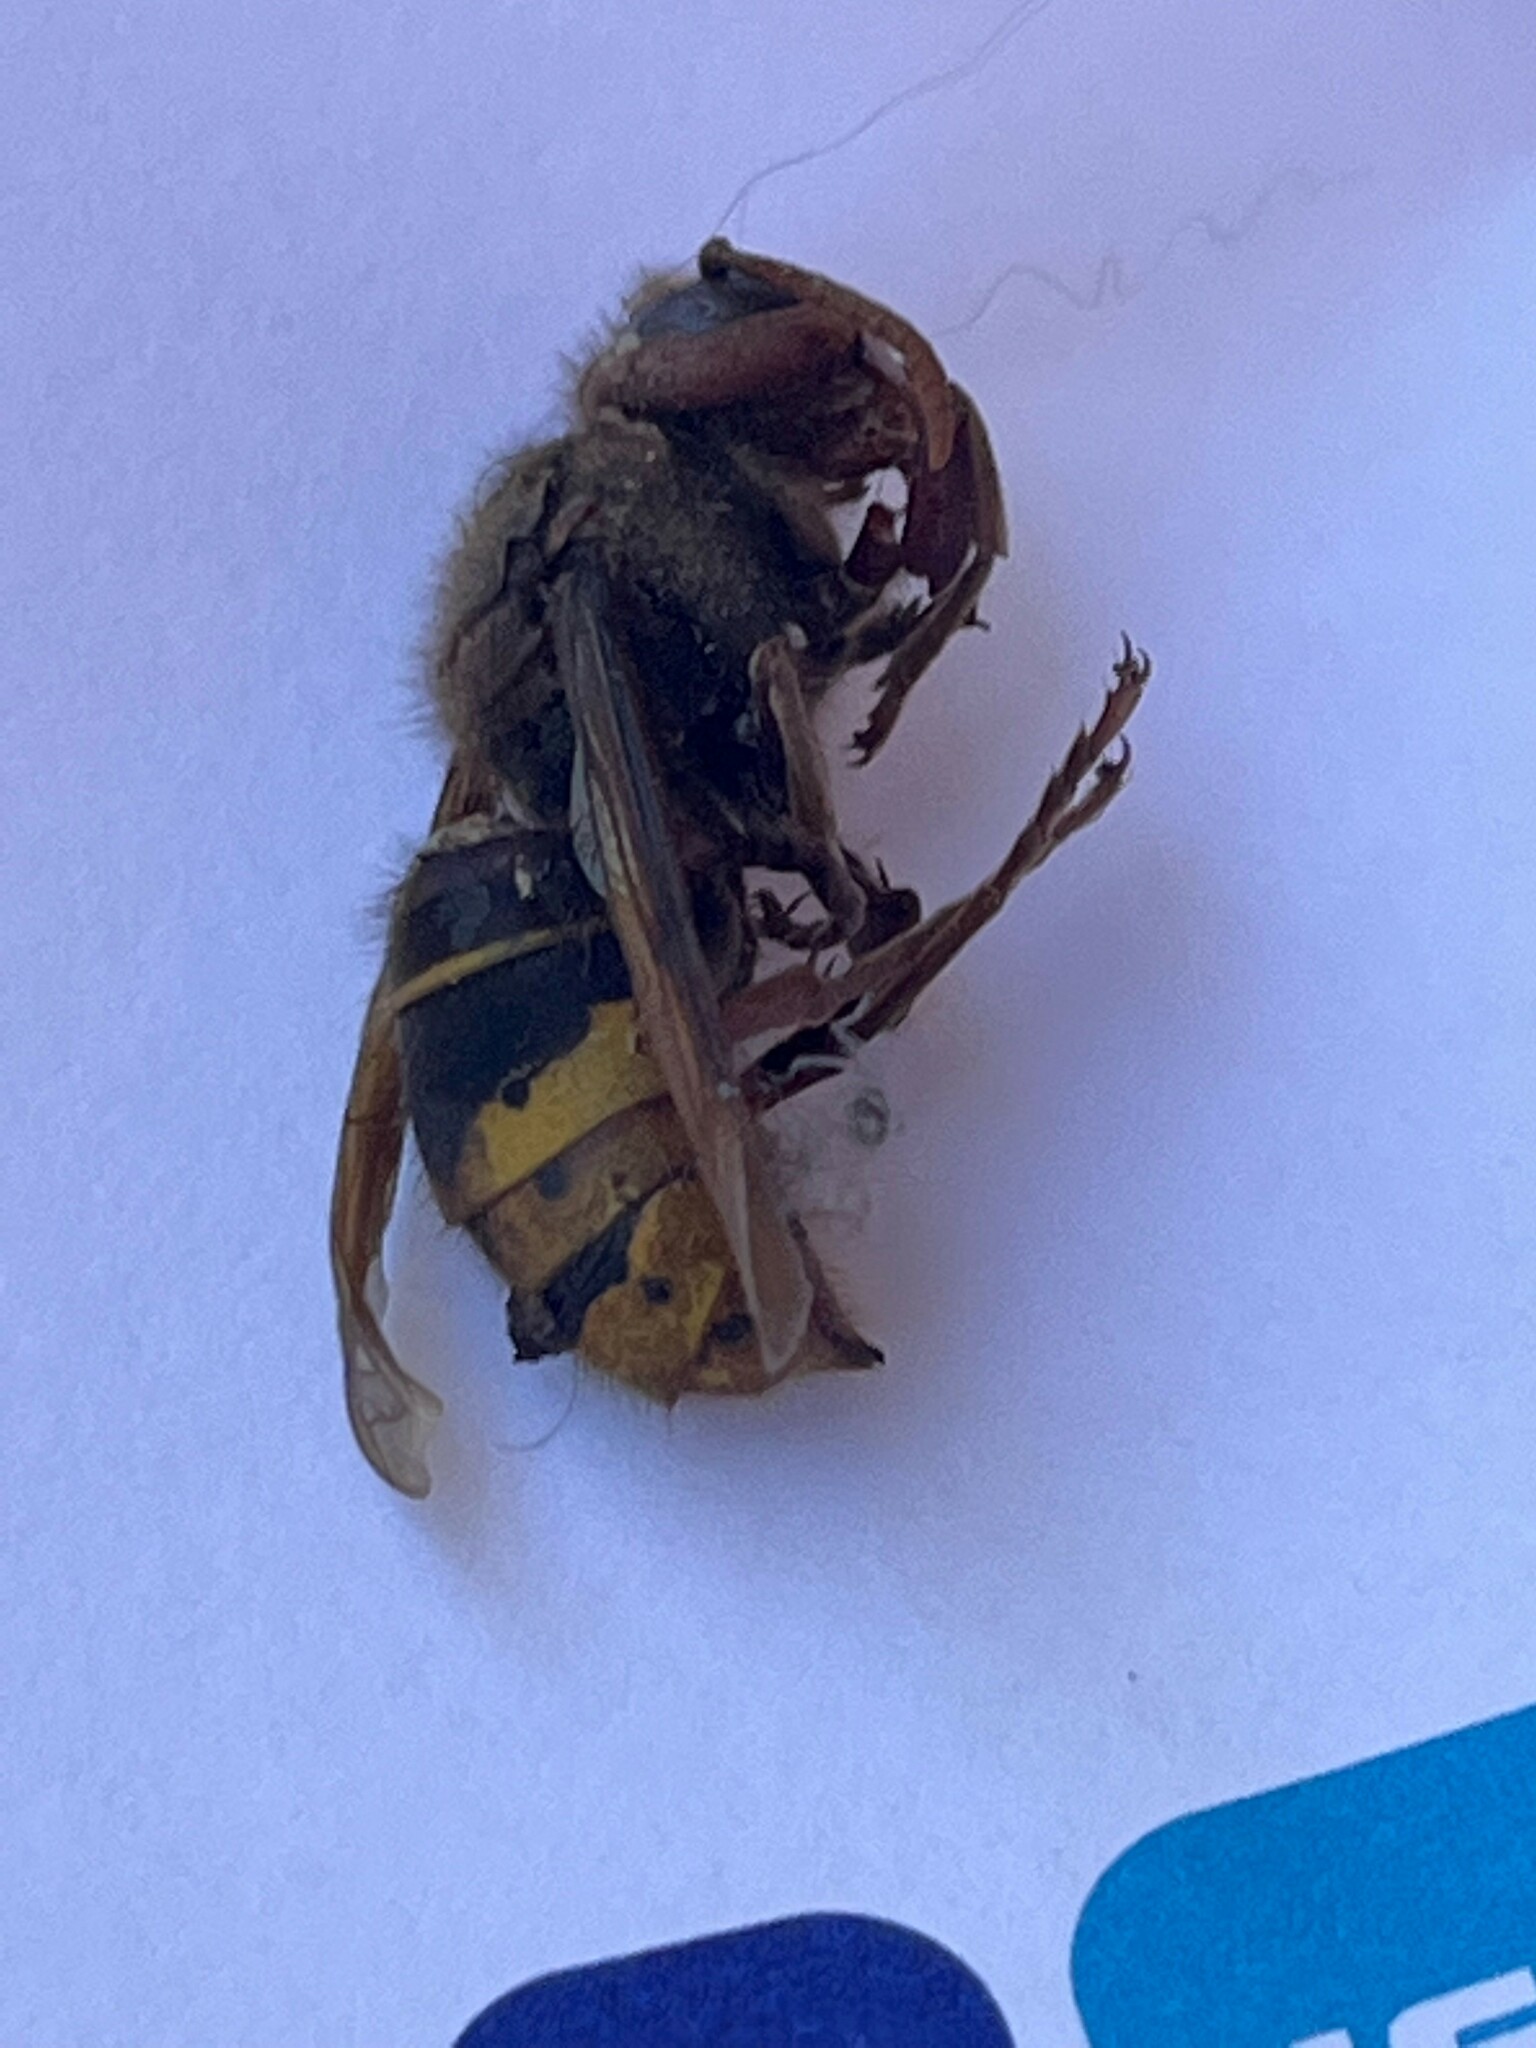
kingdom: Animalia
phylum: Arthropoda
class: Insecta
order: Hymenoptera
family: Vespidae
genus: Vespa
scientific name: Vespa crabro
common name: Hornet
